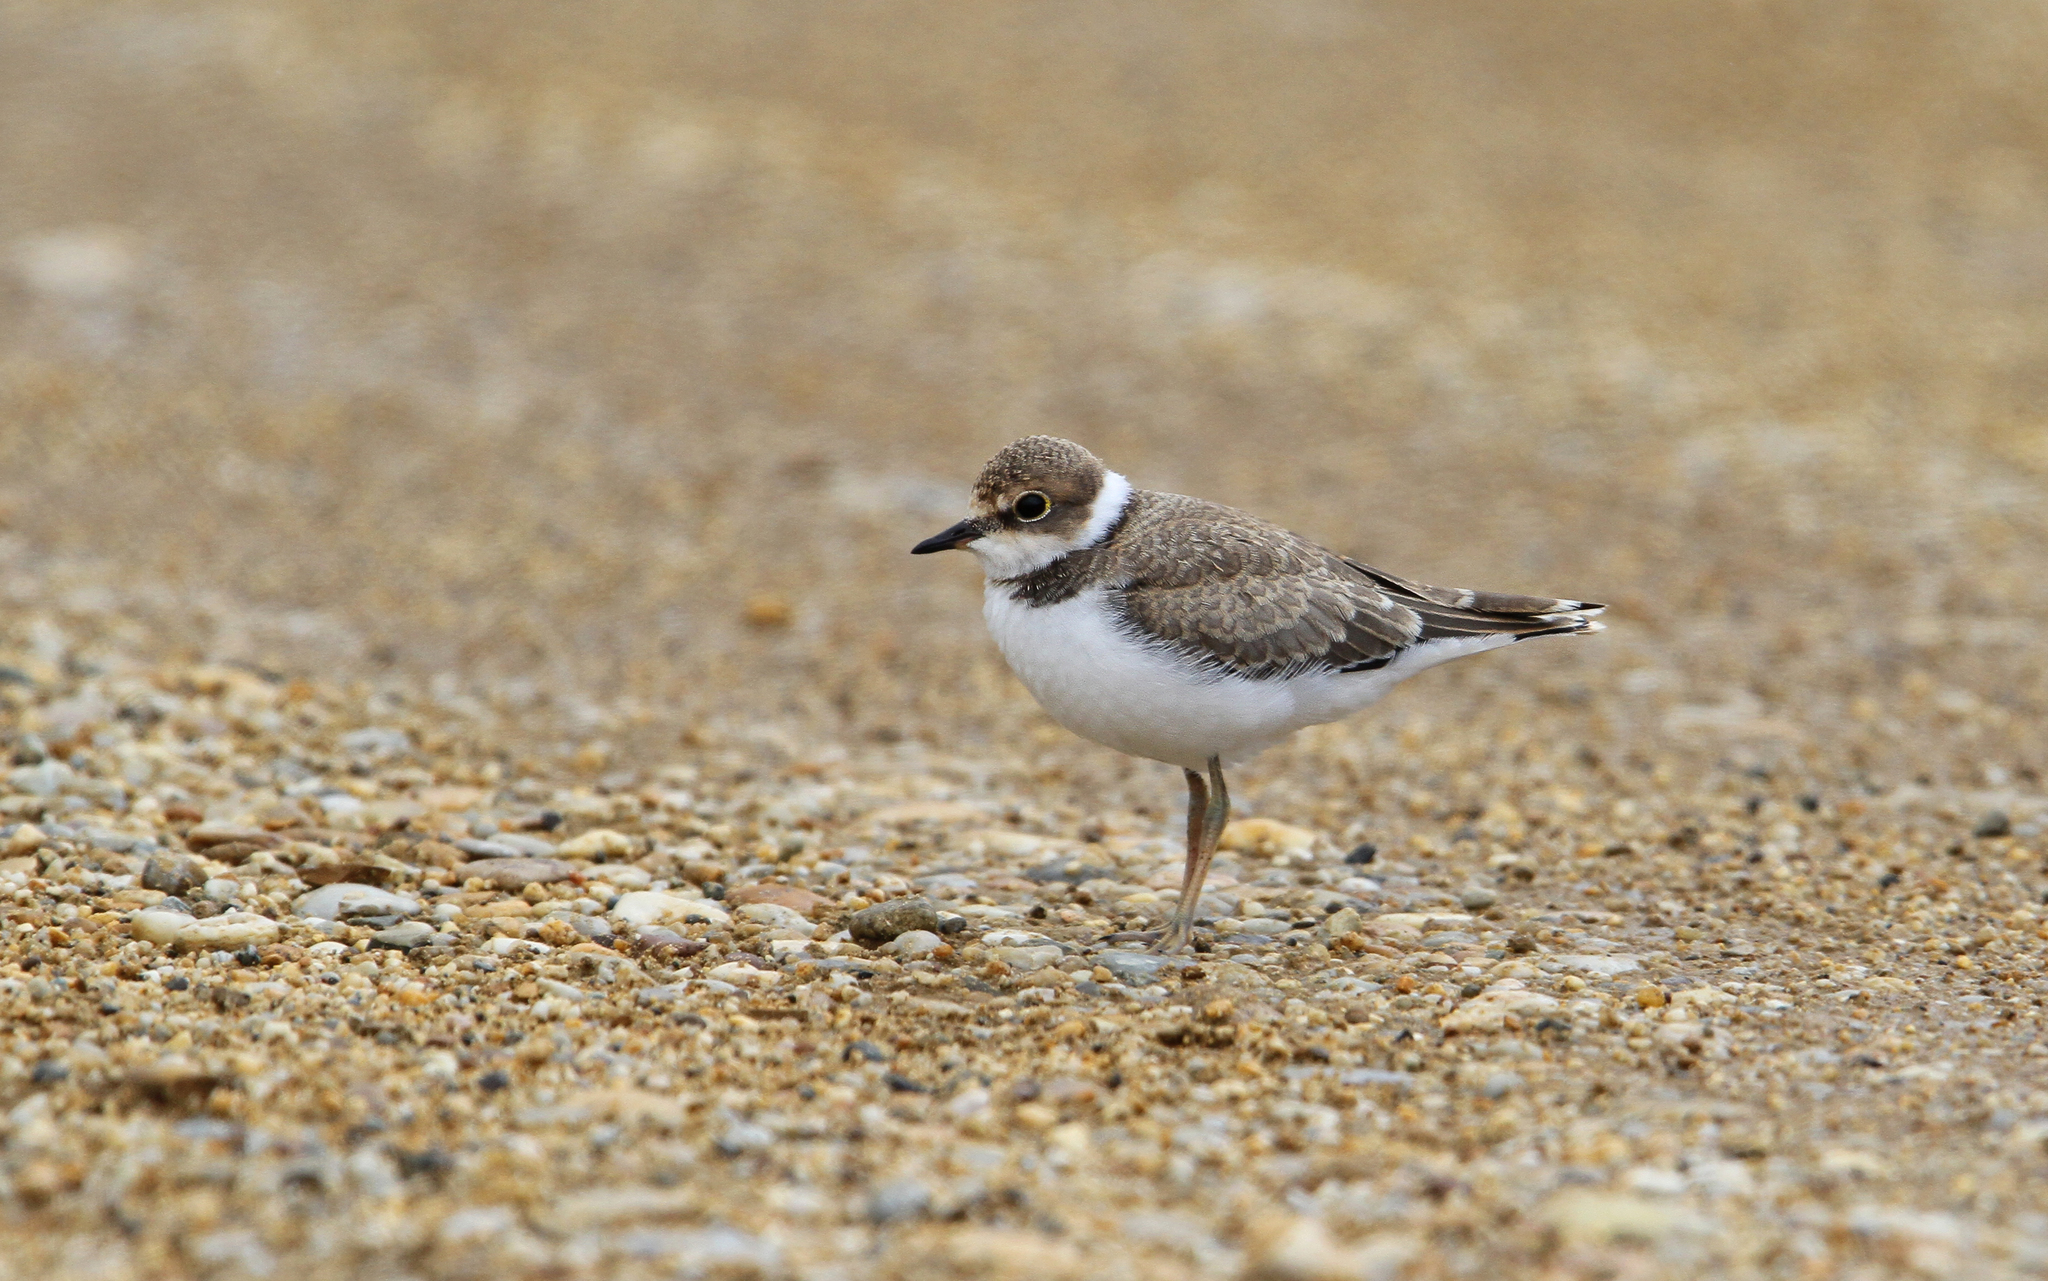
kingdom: Animalia
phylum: Chordata
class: Aves
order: Charadriiformes
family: Charadriidae
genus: Charadrius
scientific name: Charadrius dubius
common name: Little ringed plover
